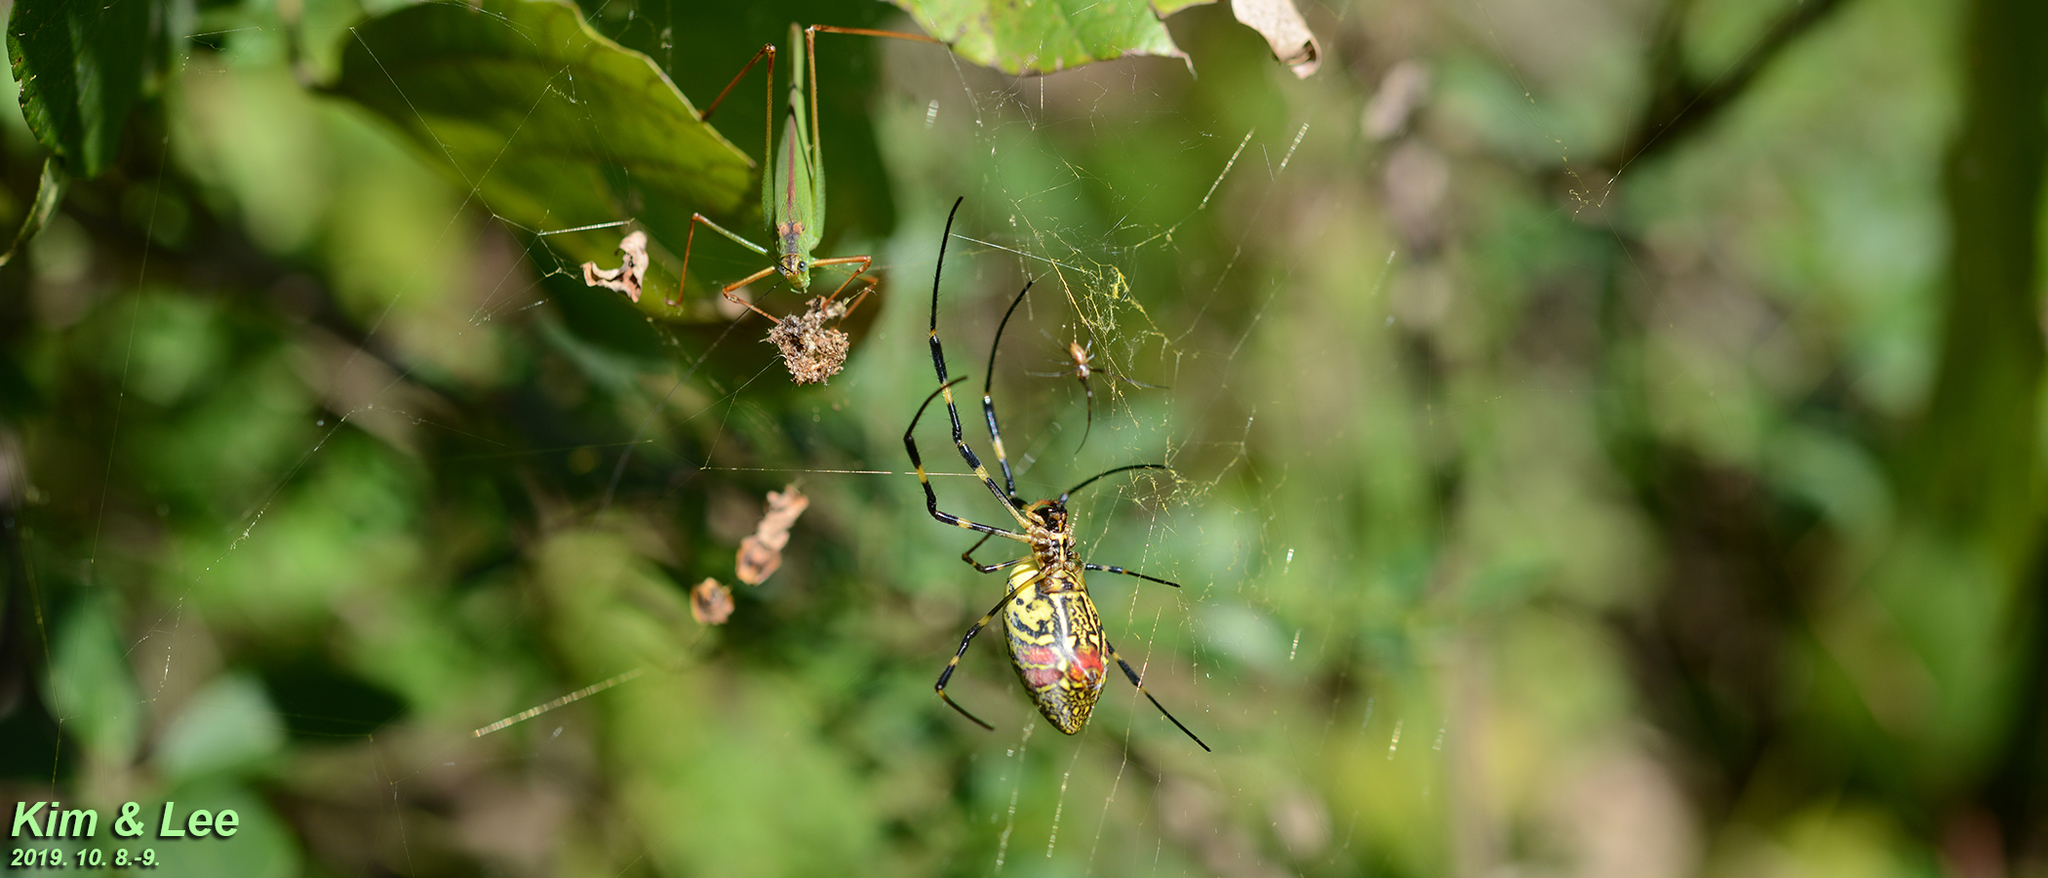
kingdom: Animalia
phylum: Arthropoda
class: Arachnida
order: Araneae
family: Araneidae
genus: Trichonephila
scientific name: Trichonephila clavata
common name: Jorō spider
